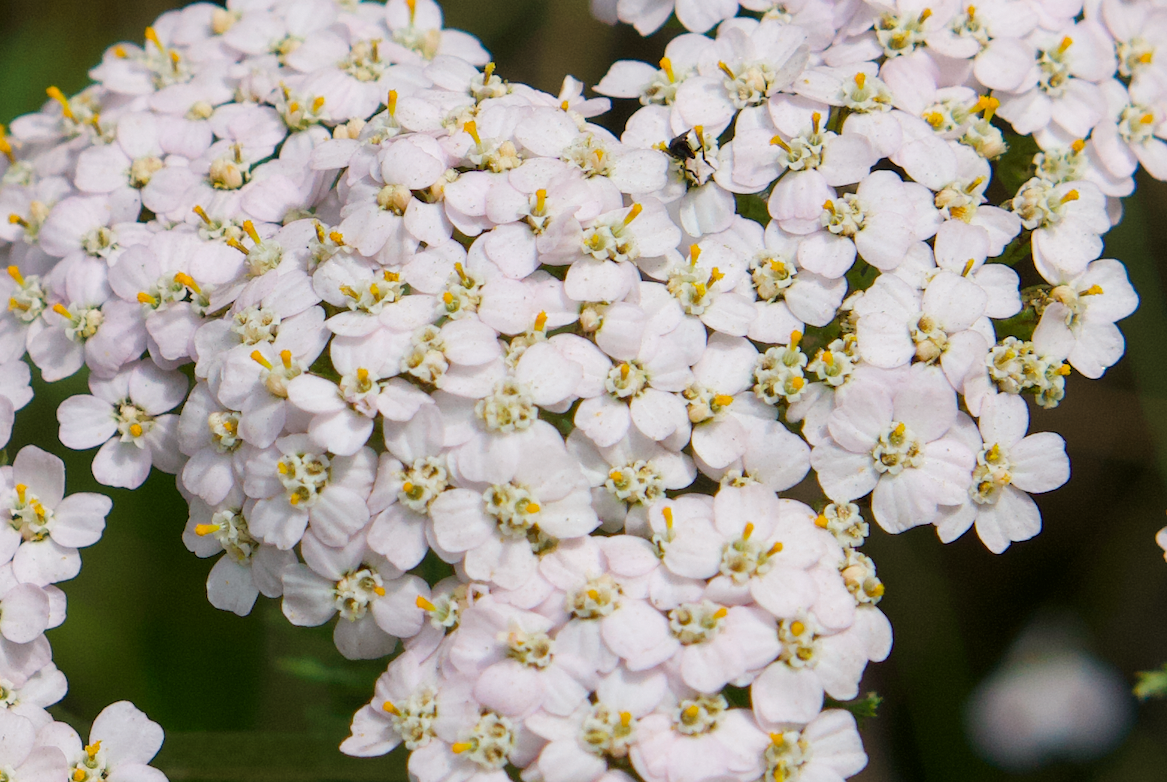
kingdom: Plantae
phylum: Tracheophyta
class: Magnoliopsida
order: Asterales
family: Asteraceae
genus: Achillea
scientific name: Achillea millefolium
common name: Yarrow
